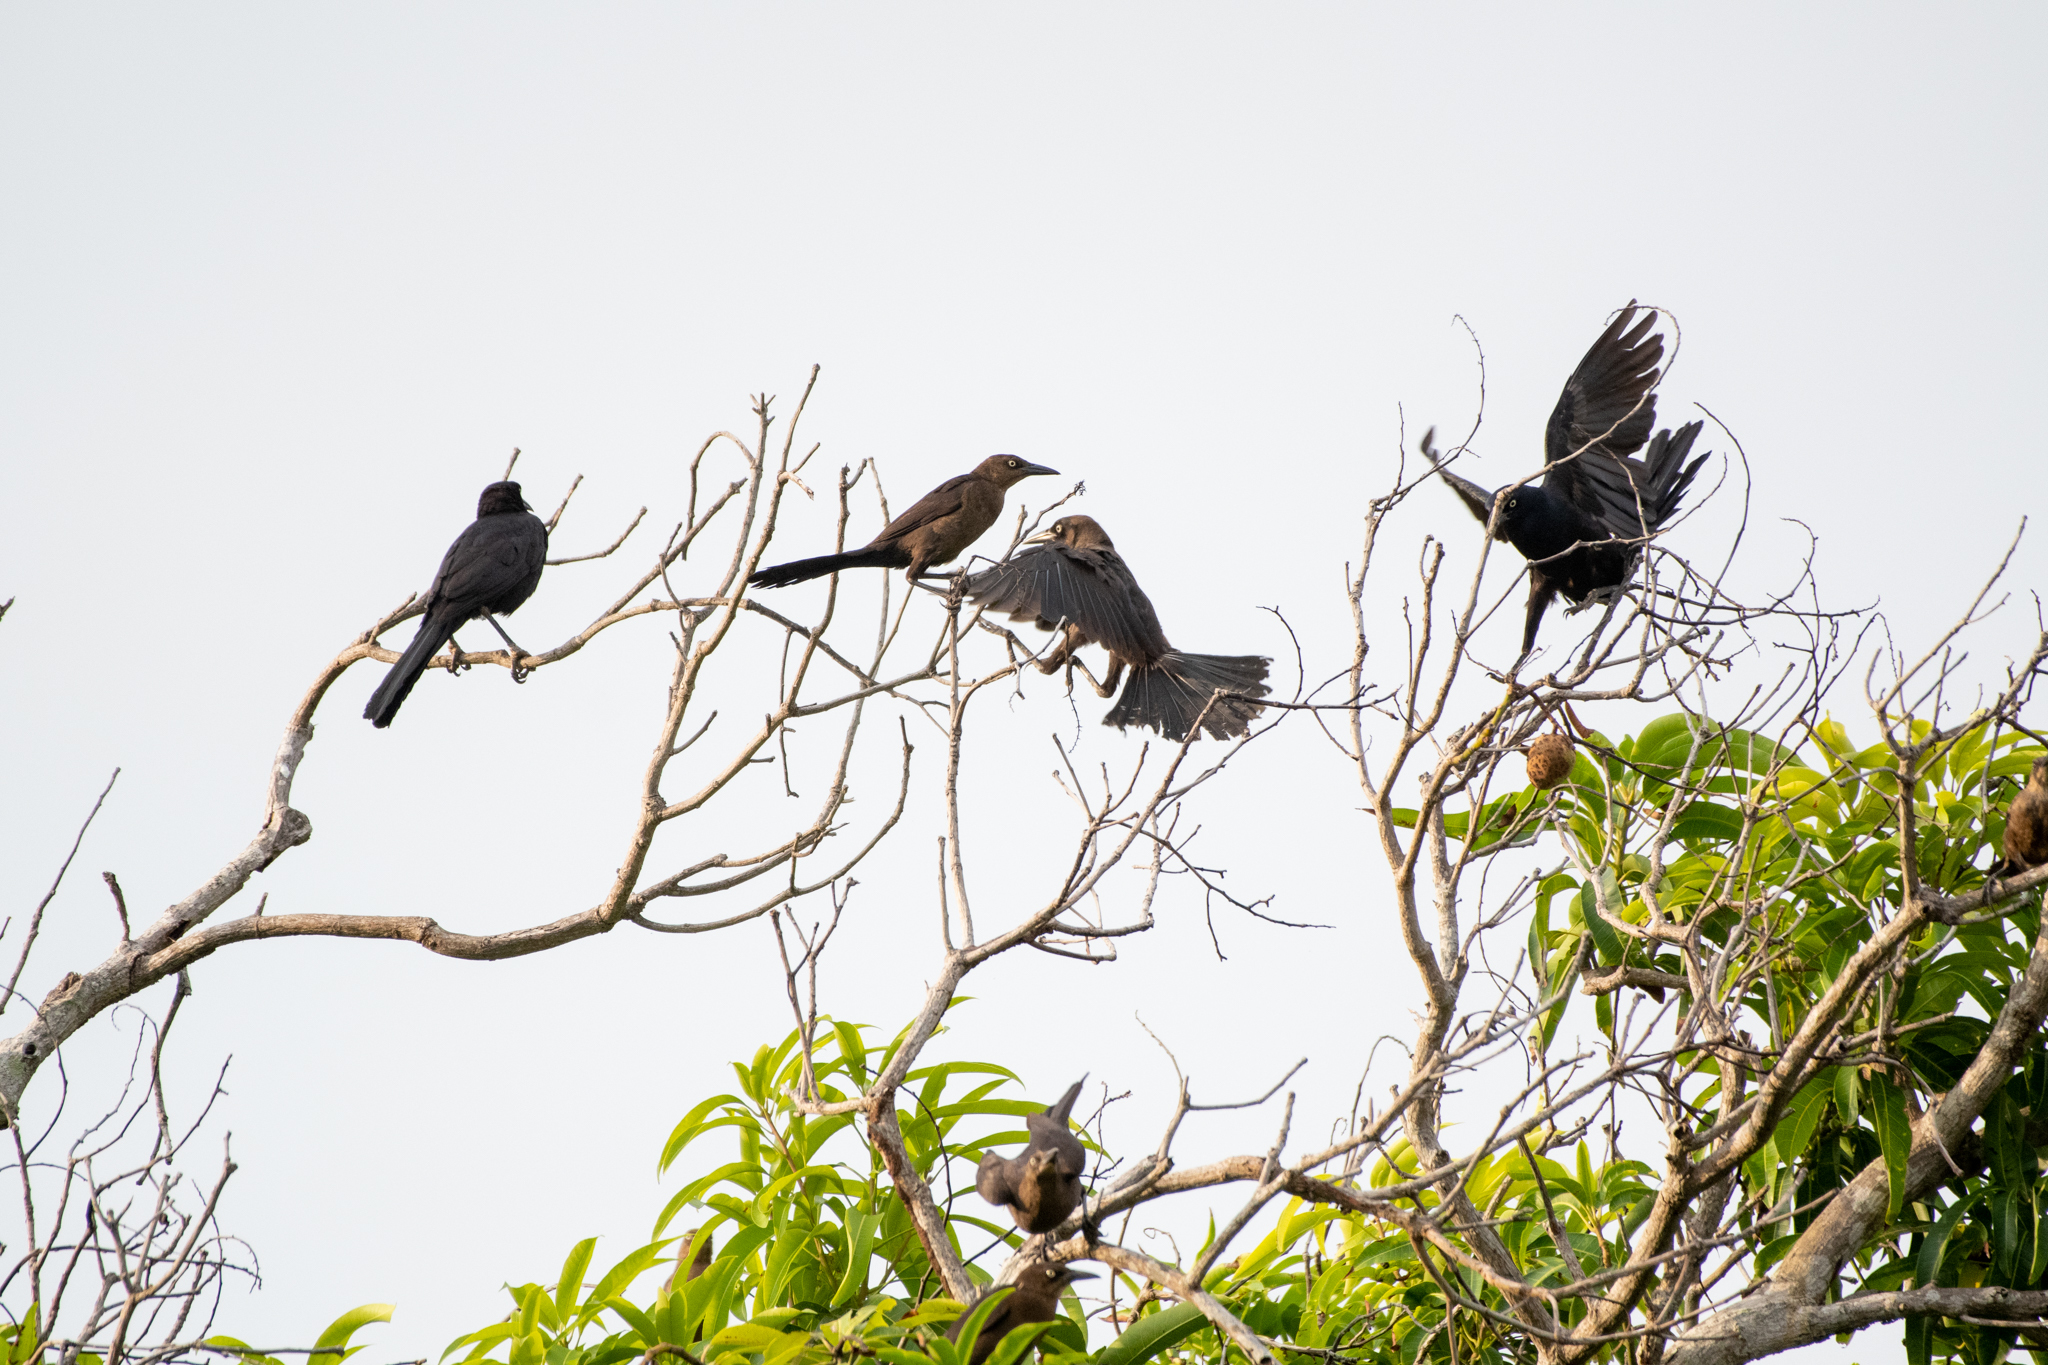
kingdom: Animalia
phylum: Chordata
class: Aves
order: Passeriformes
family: Icteridae
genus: Quiscalus
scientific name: Quiscalus mexicanus
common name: Great-tailed grackle
